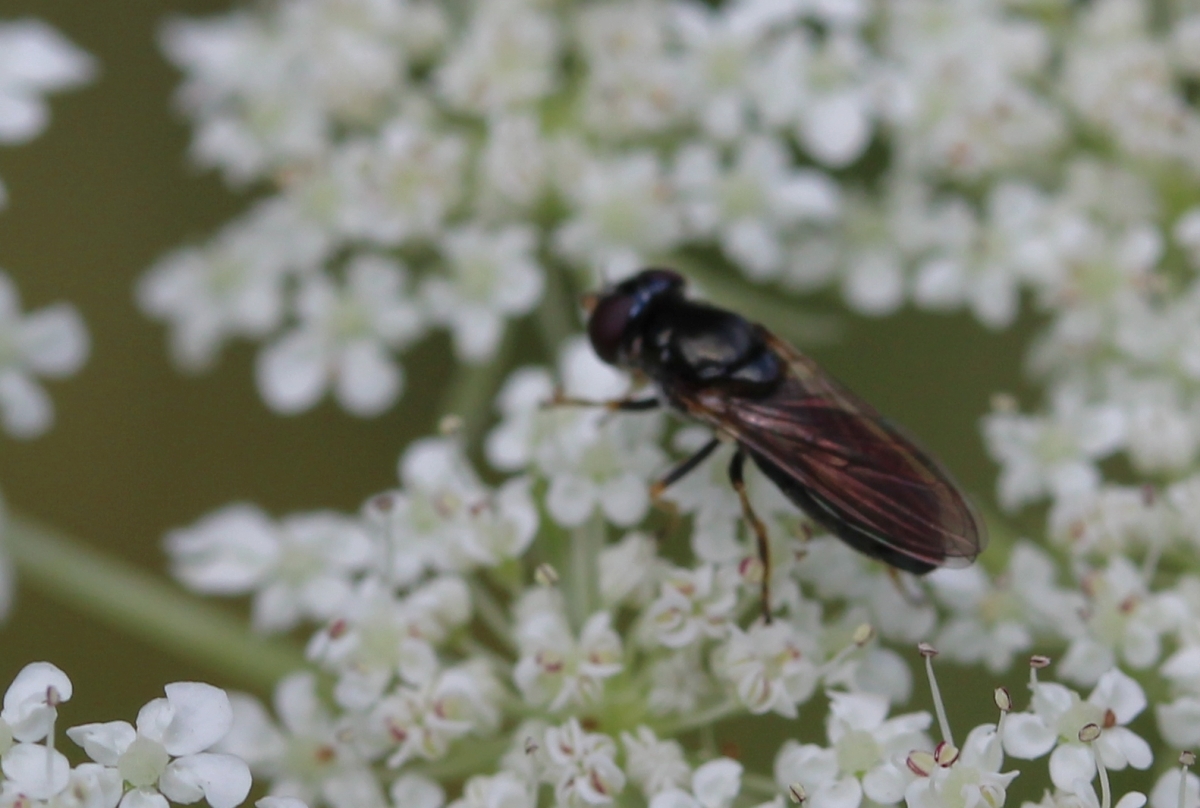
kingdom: Animalia
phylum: Arthropoda
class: Insecta
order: Diptera
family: Syrphidae
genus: Cheilosia
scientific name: Cheilosia pagana
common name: Hover fly
